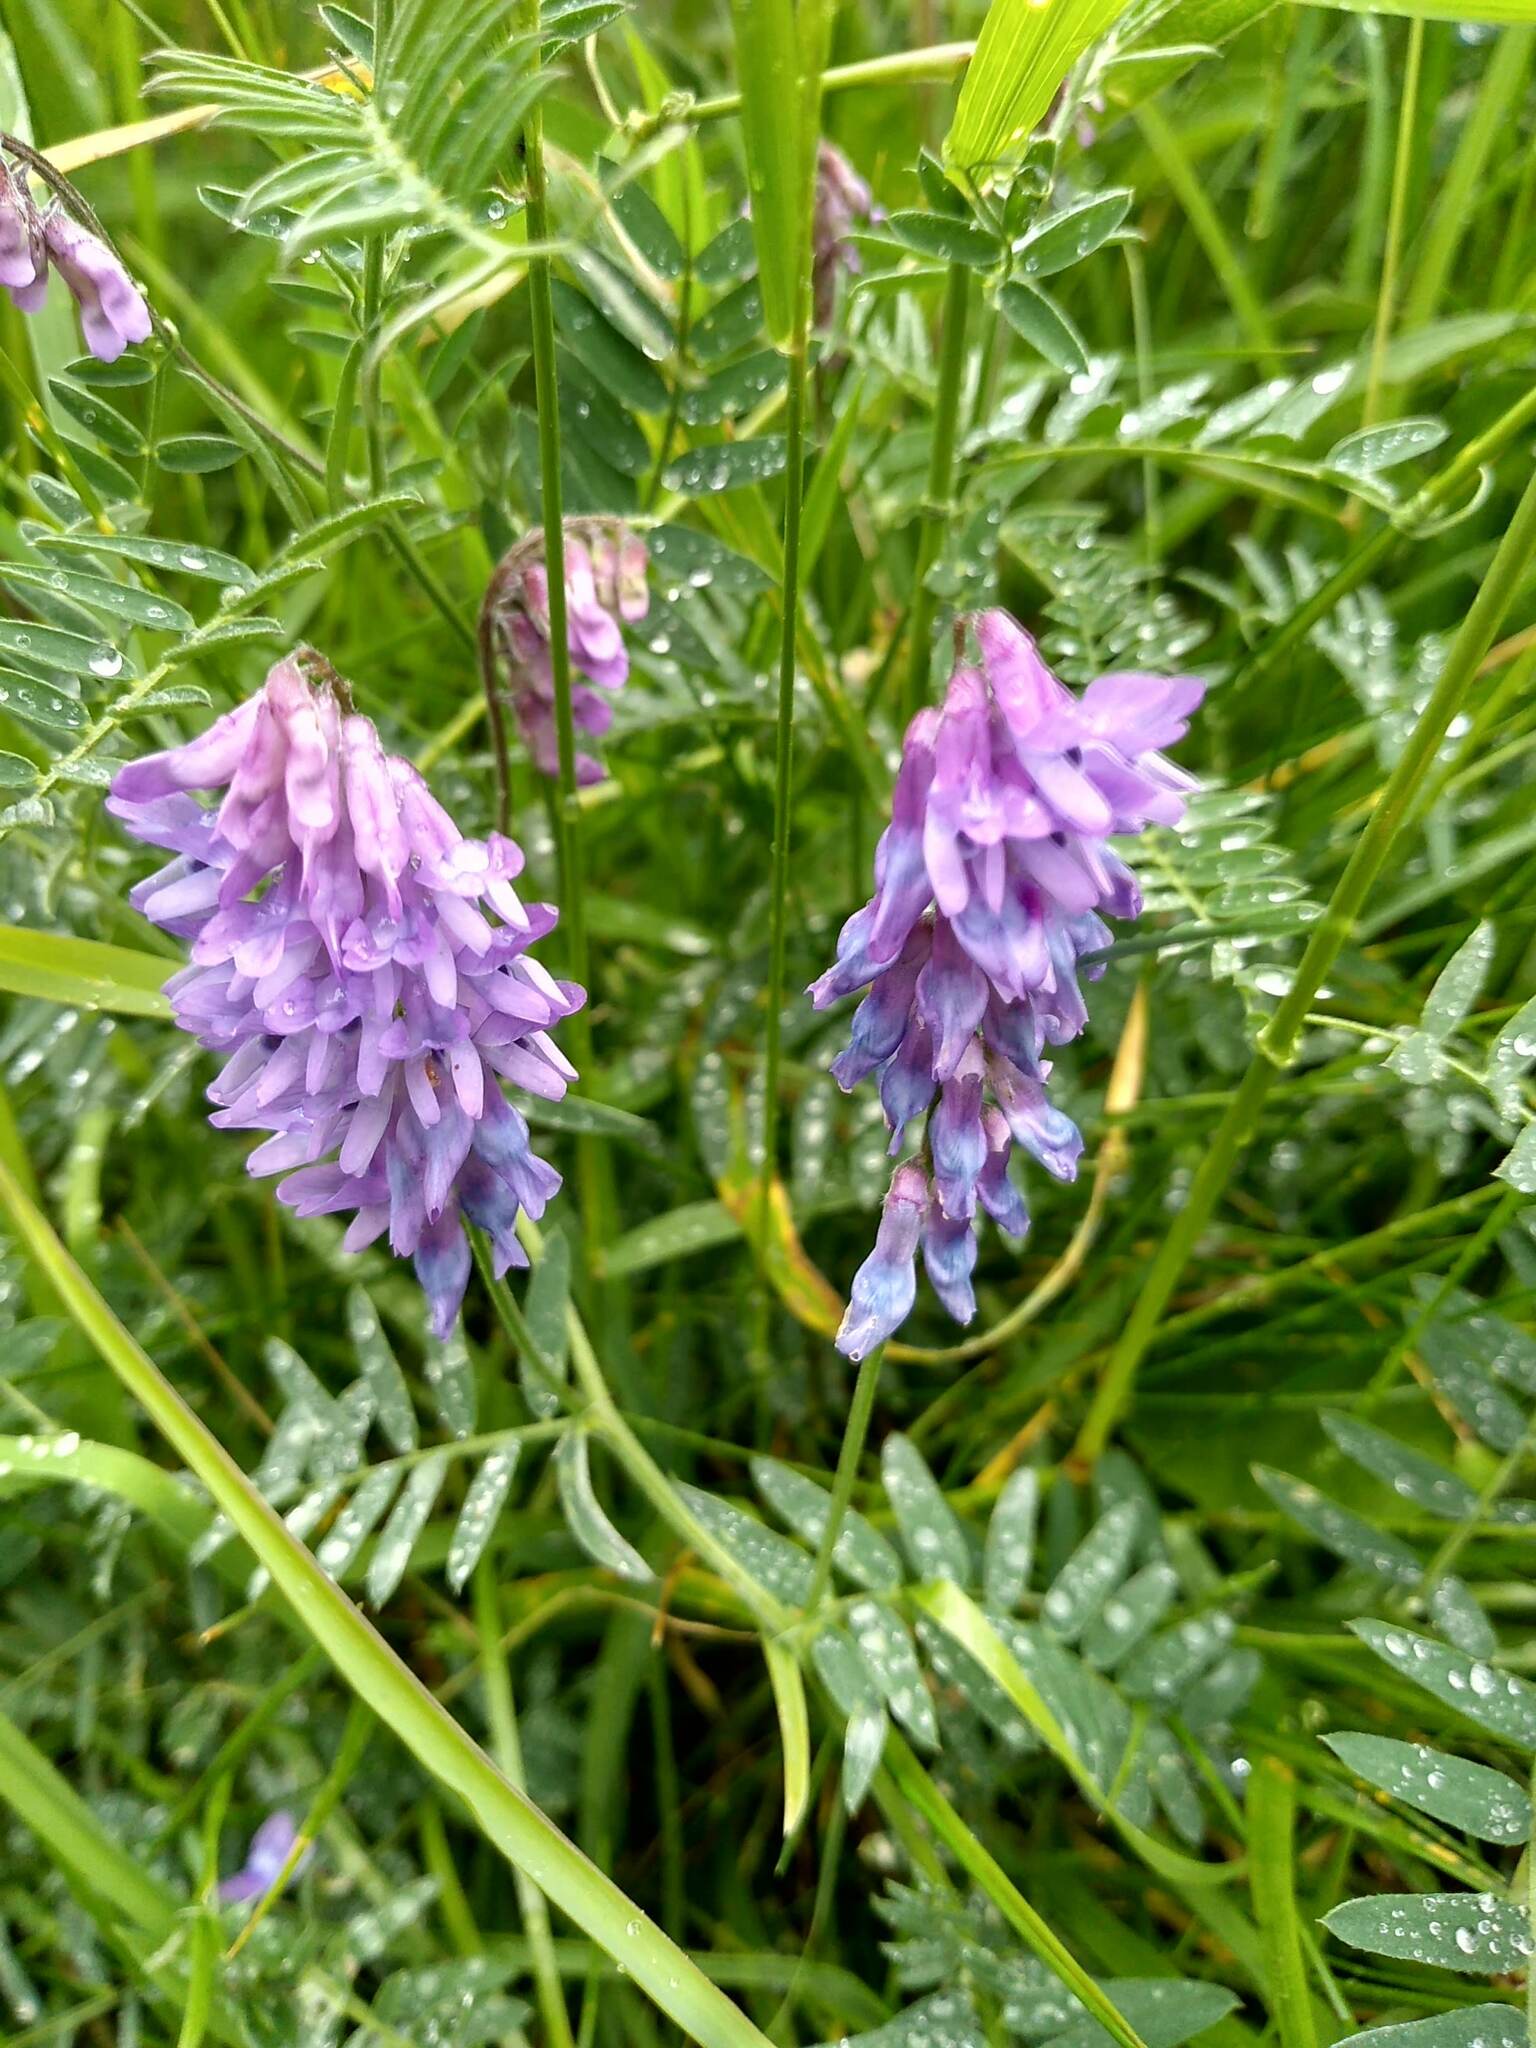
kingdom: Plantae
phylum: Tracheophyta
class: Magnoliopsida
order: Fabales
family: Fabaceae
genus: Vicia
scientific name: Vicia cracca
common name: Bird vetch
